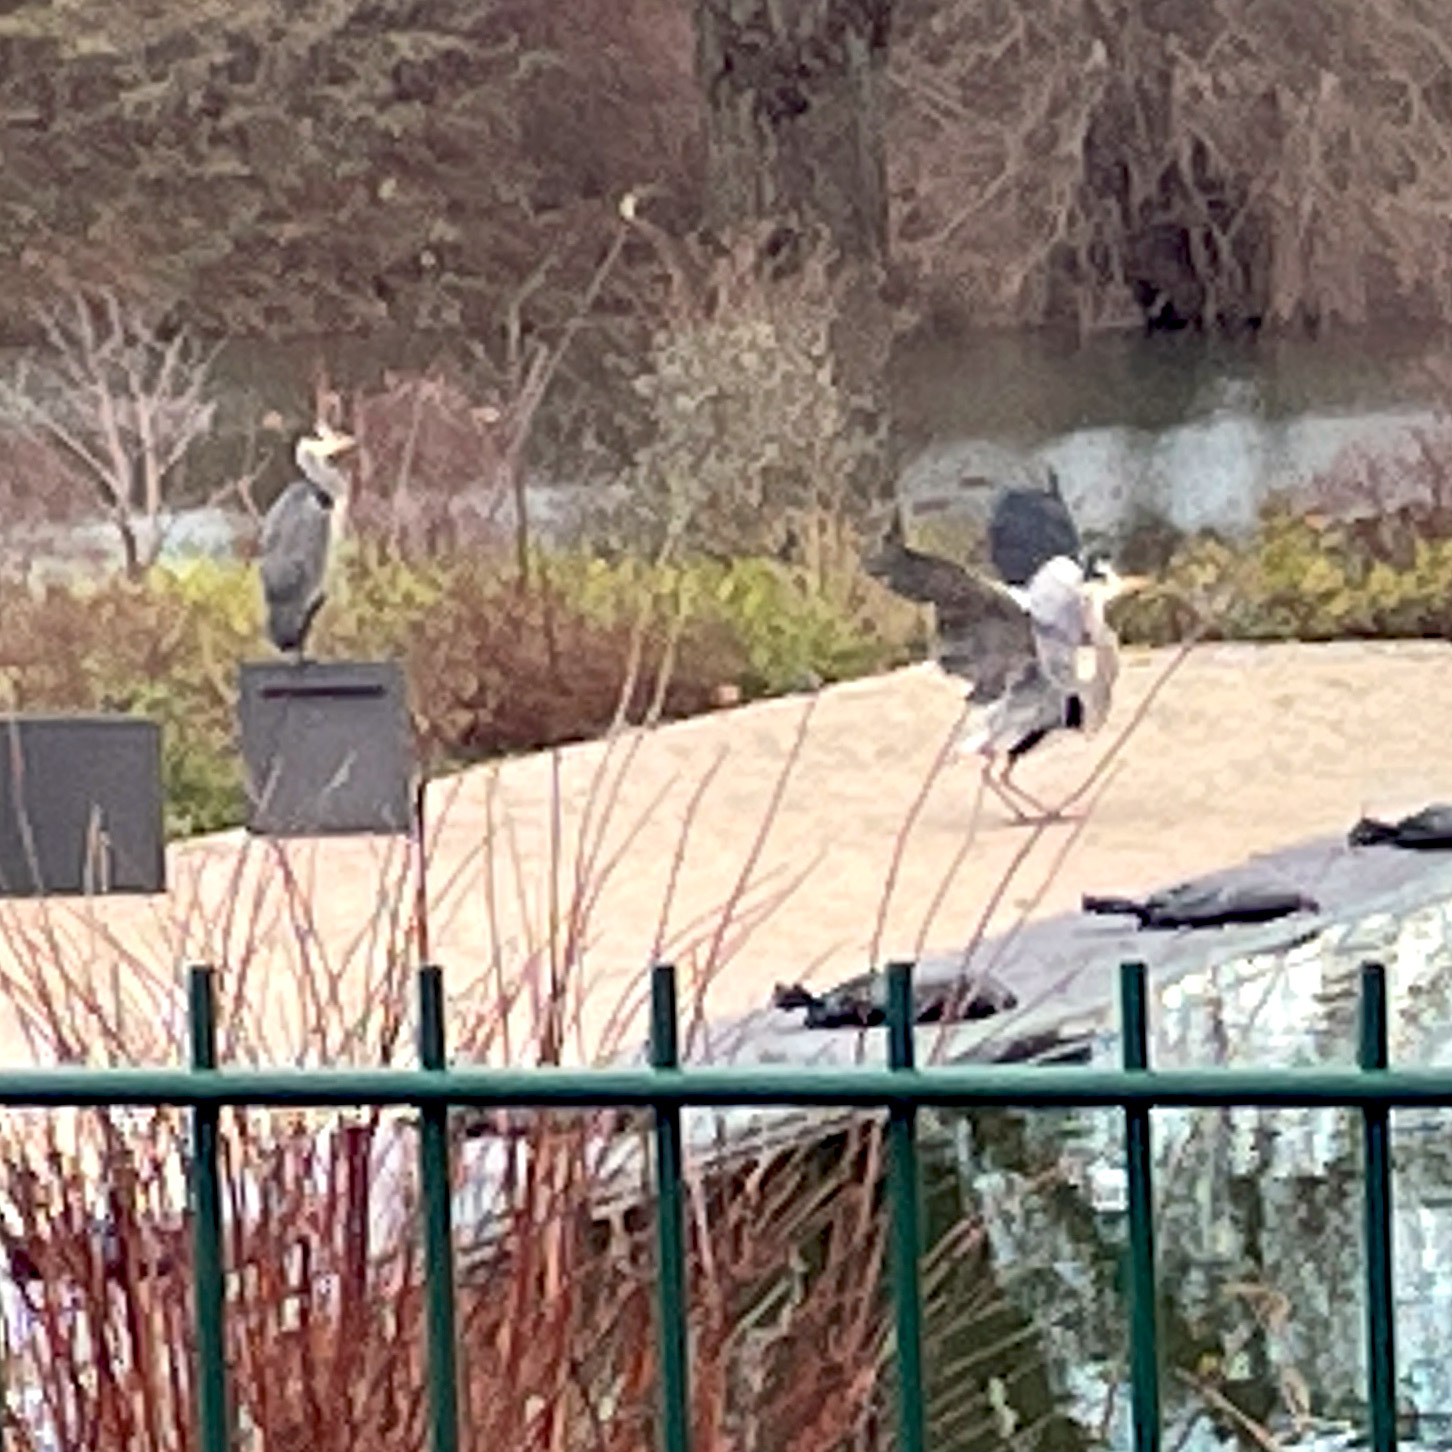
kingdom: Animalia
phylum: Chordata
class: Aves
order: Pelecaniformes
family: Ardeidae
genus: Ardea
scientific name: Ardea cinerea
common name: Grey heron
